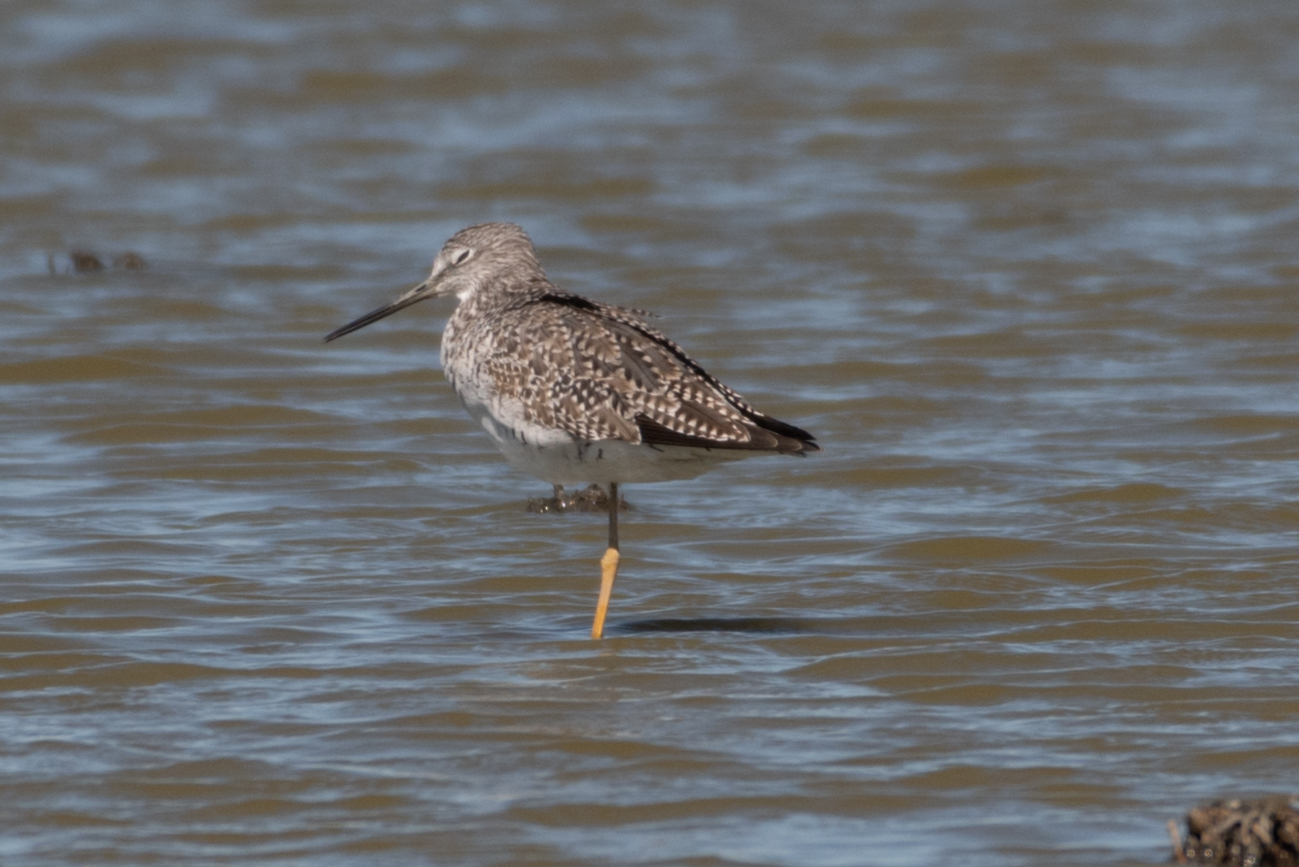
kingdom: Animalia
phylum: Chordata
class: Aves
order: Charadriiformes
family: Scolopacidae
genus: Tringa
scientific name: Tringa melanoleuca
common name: Greater yellowlegs
